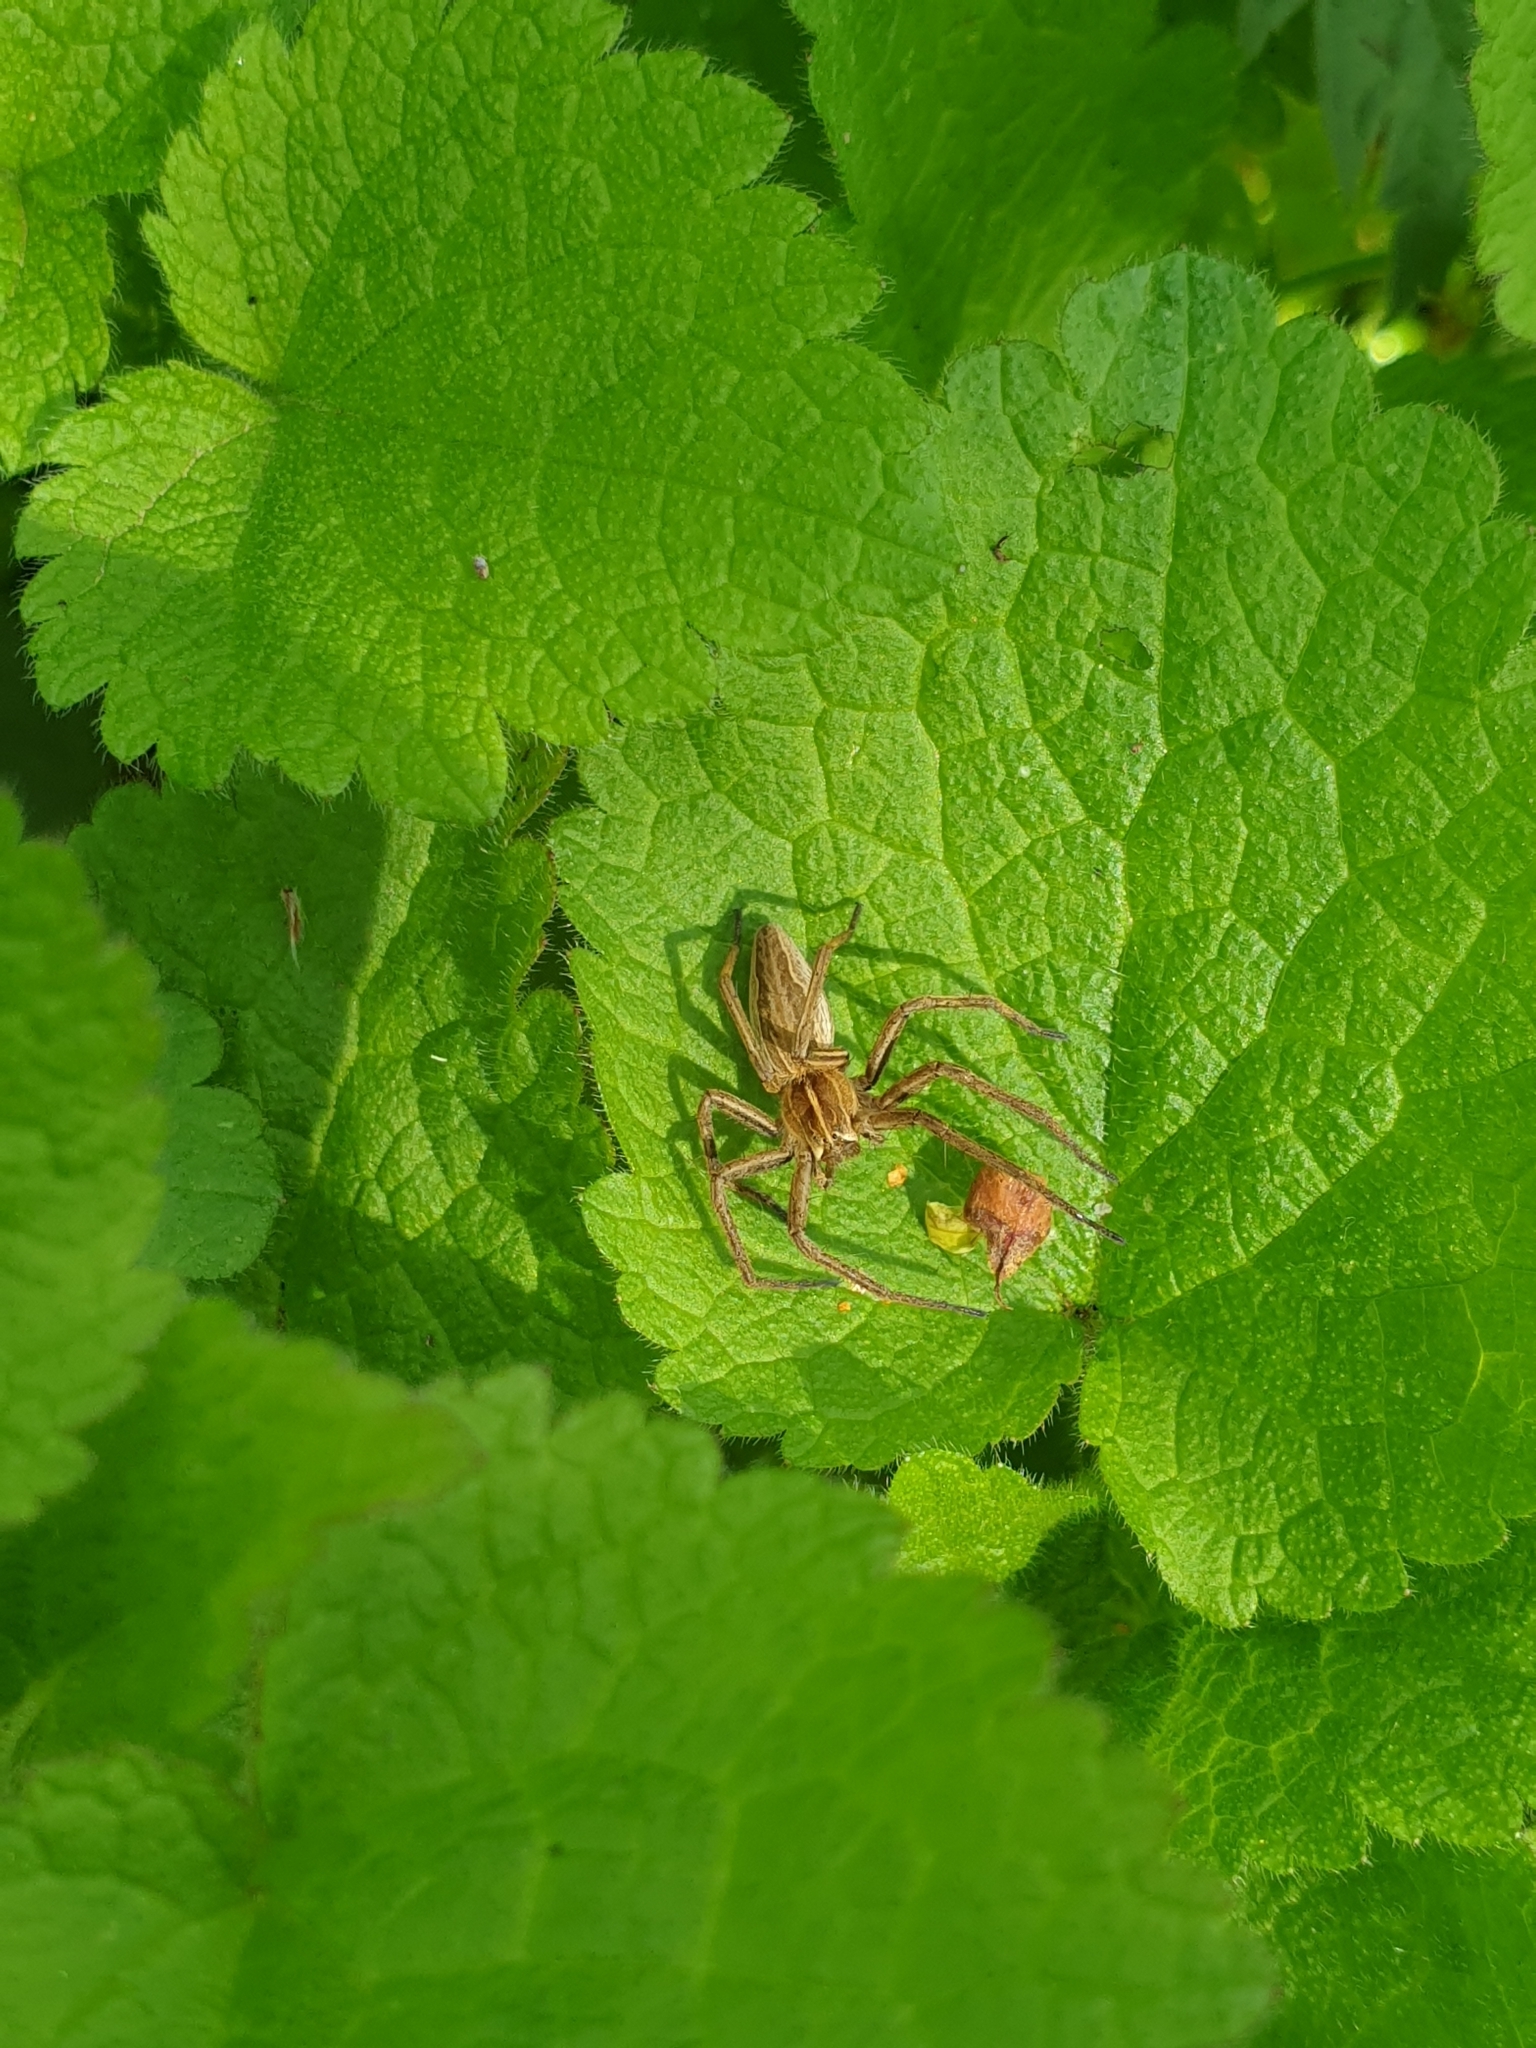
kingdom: Animalia
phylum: Arthropoda
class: Arachnida
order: Araneae
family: Pisauridae
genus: Pisaura
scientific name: Pisaura mirabilis
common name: Tent spider
